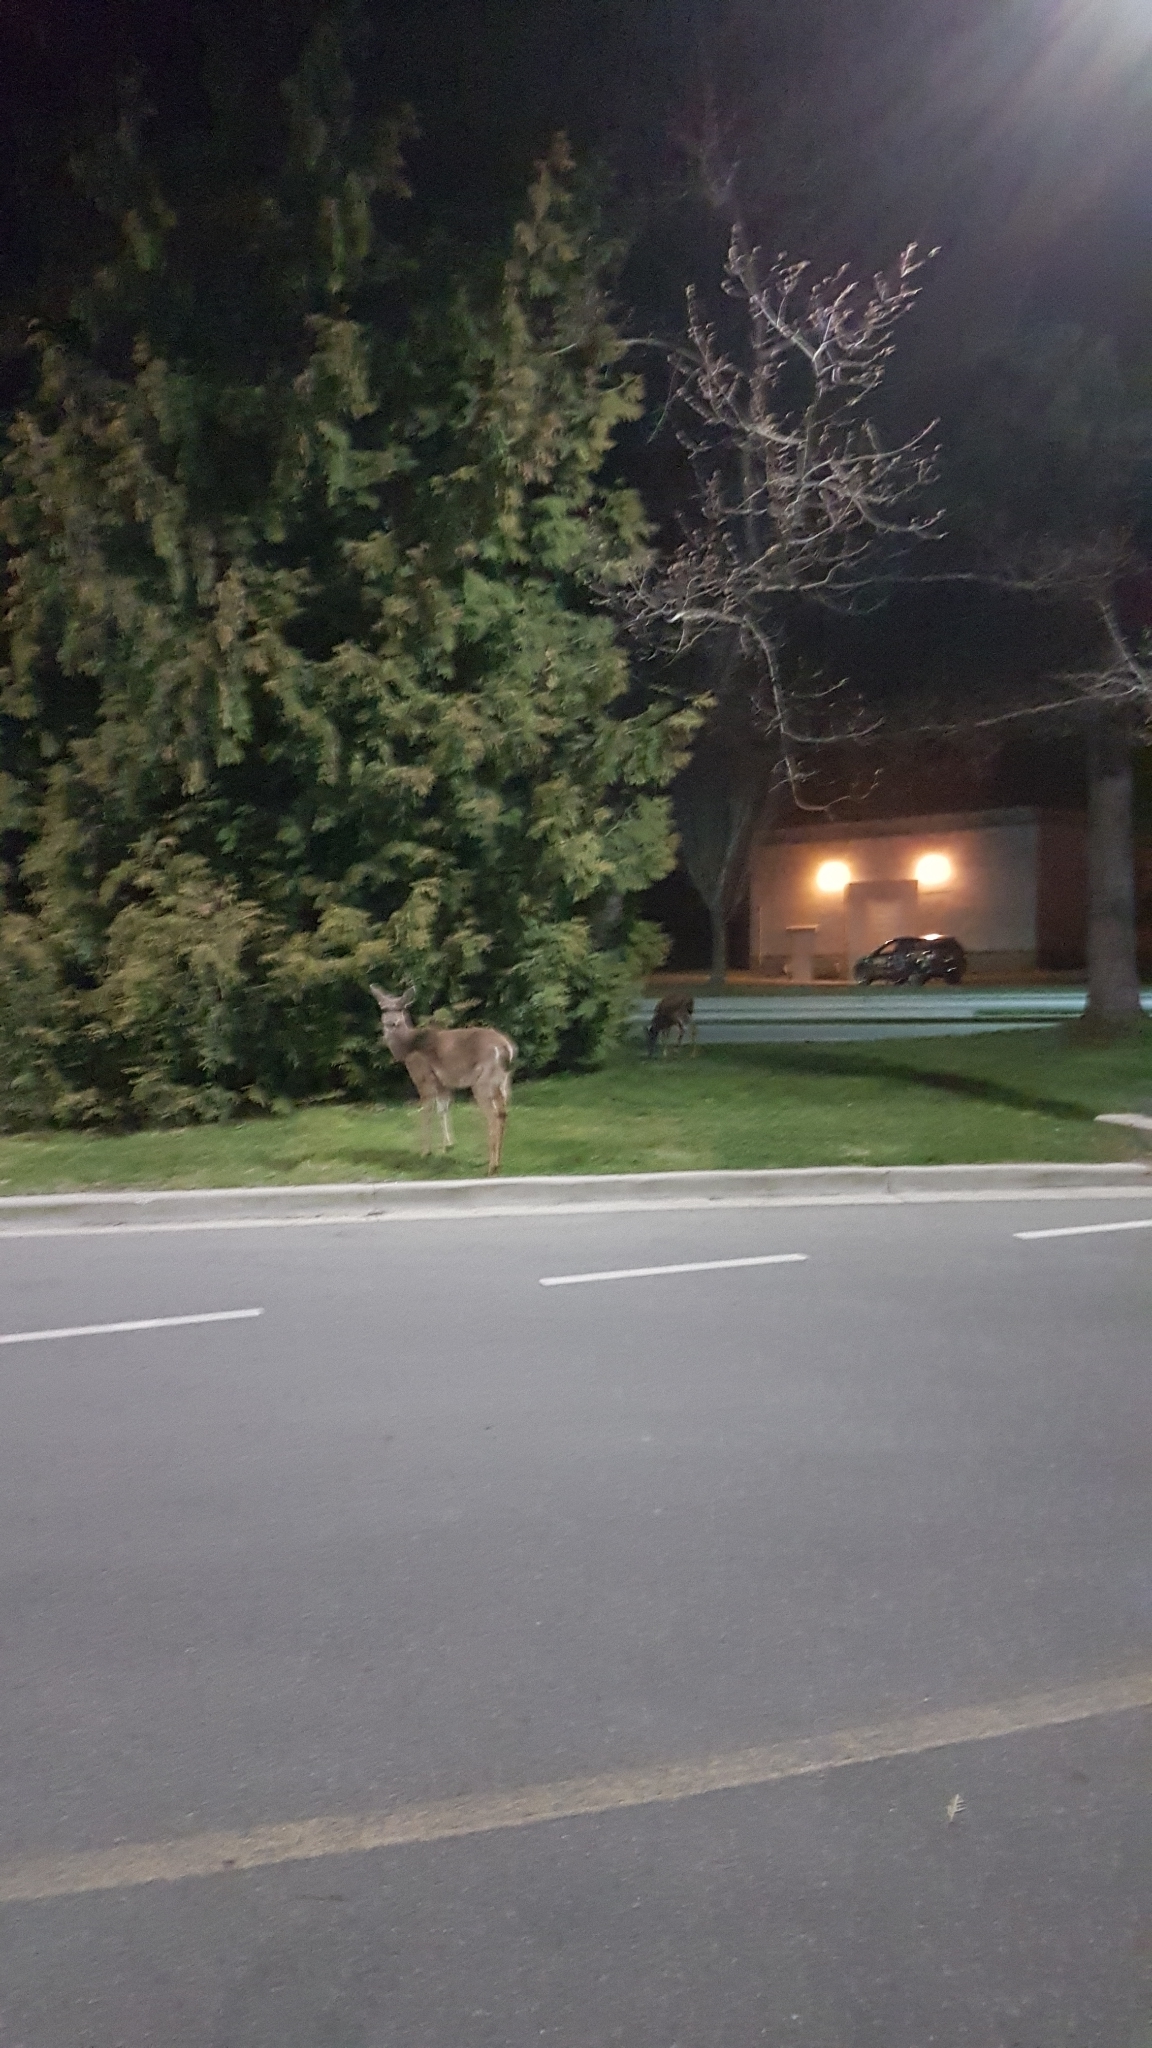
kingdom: Animalia
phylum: Chordata
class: Mammalia
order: Artiodactyla
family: Cervidae
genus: Odocoileus
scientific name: Odocoileus hemionus
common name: Mule deer
